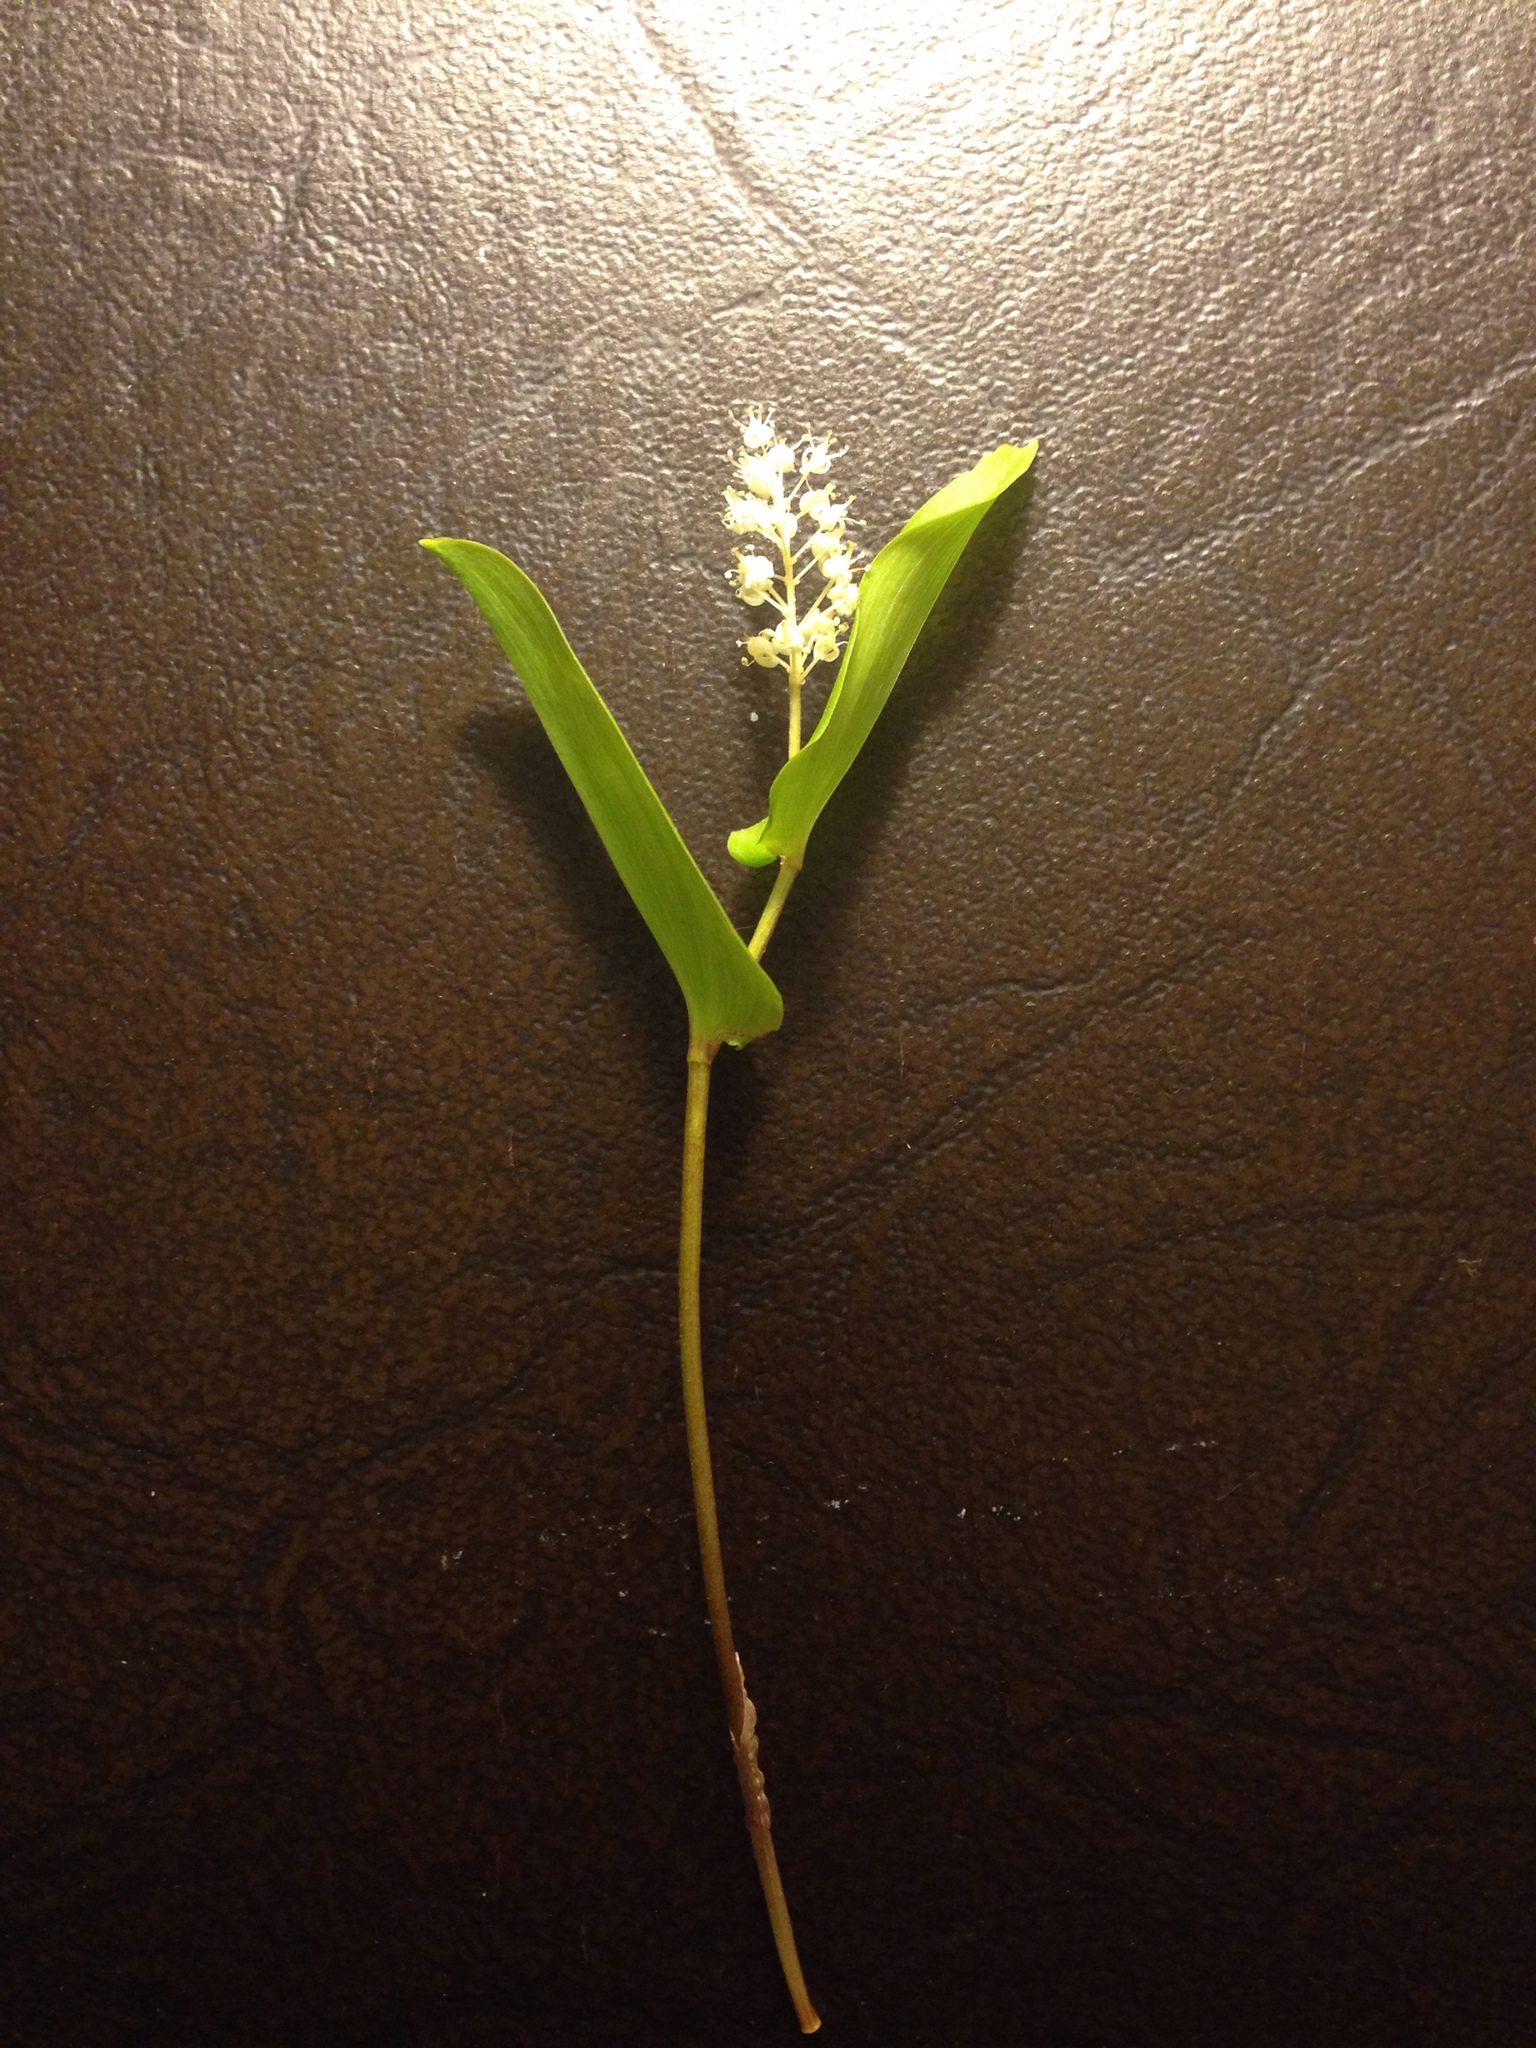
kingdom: Plantae
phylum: Tracheophyta
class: Liliopsida
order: Asparagales
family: Asparagaceae
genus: Maianthemum
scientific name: Maianthemum canadense
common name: False lily-of-the-valley
